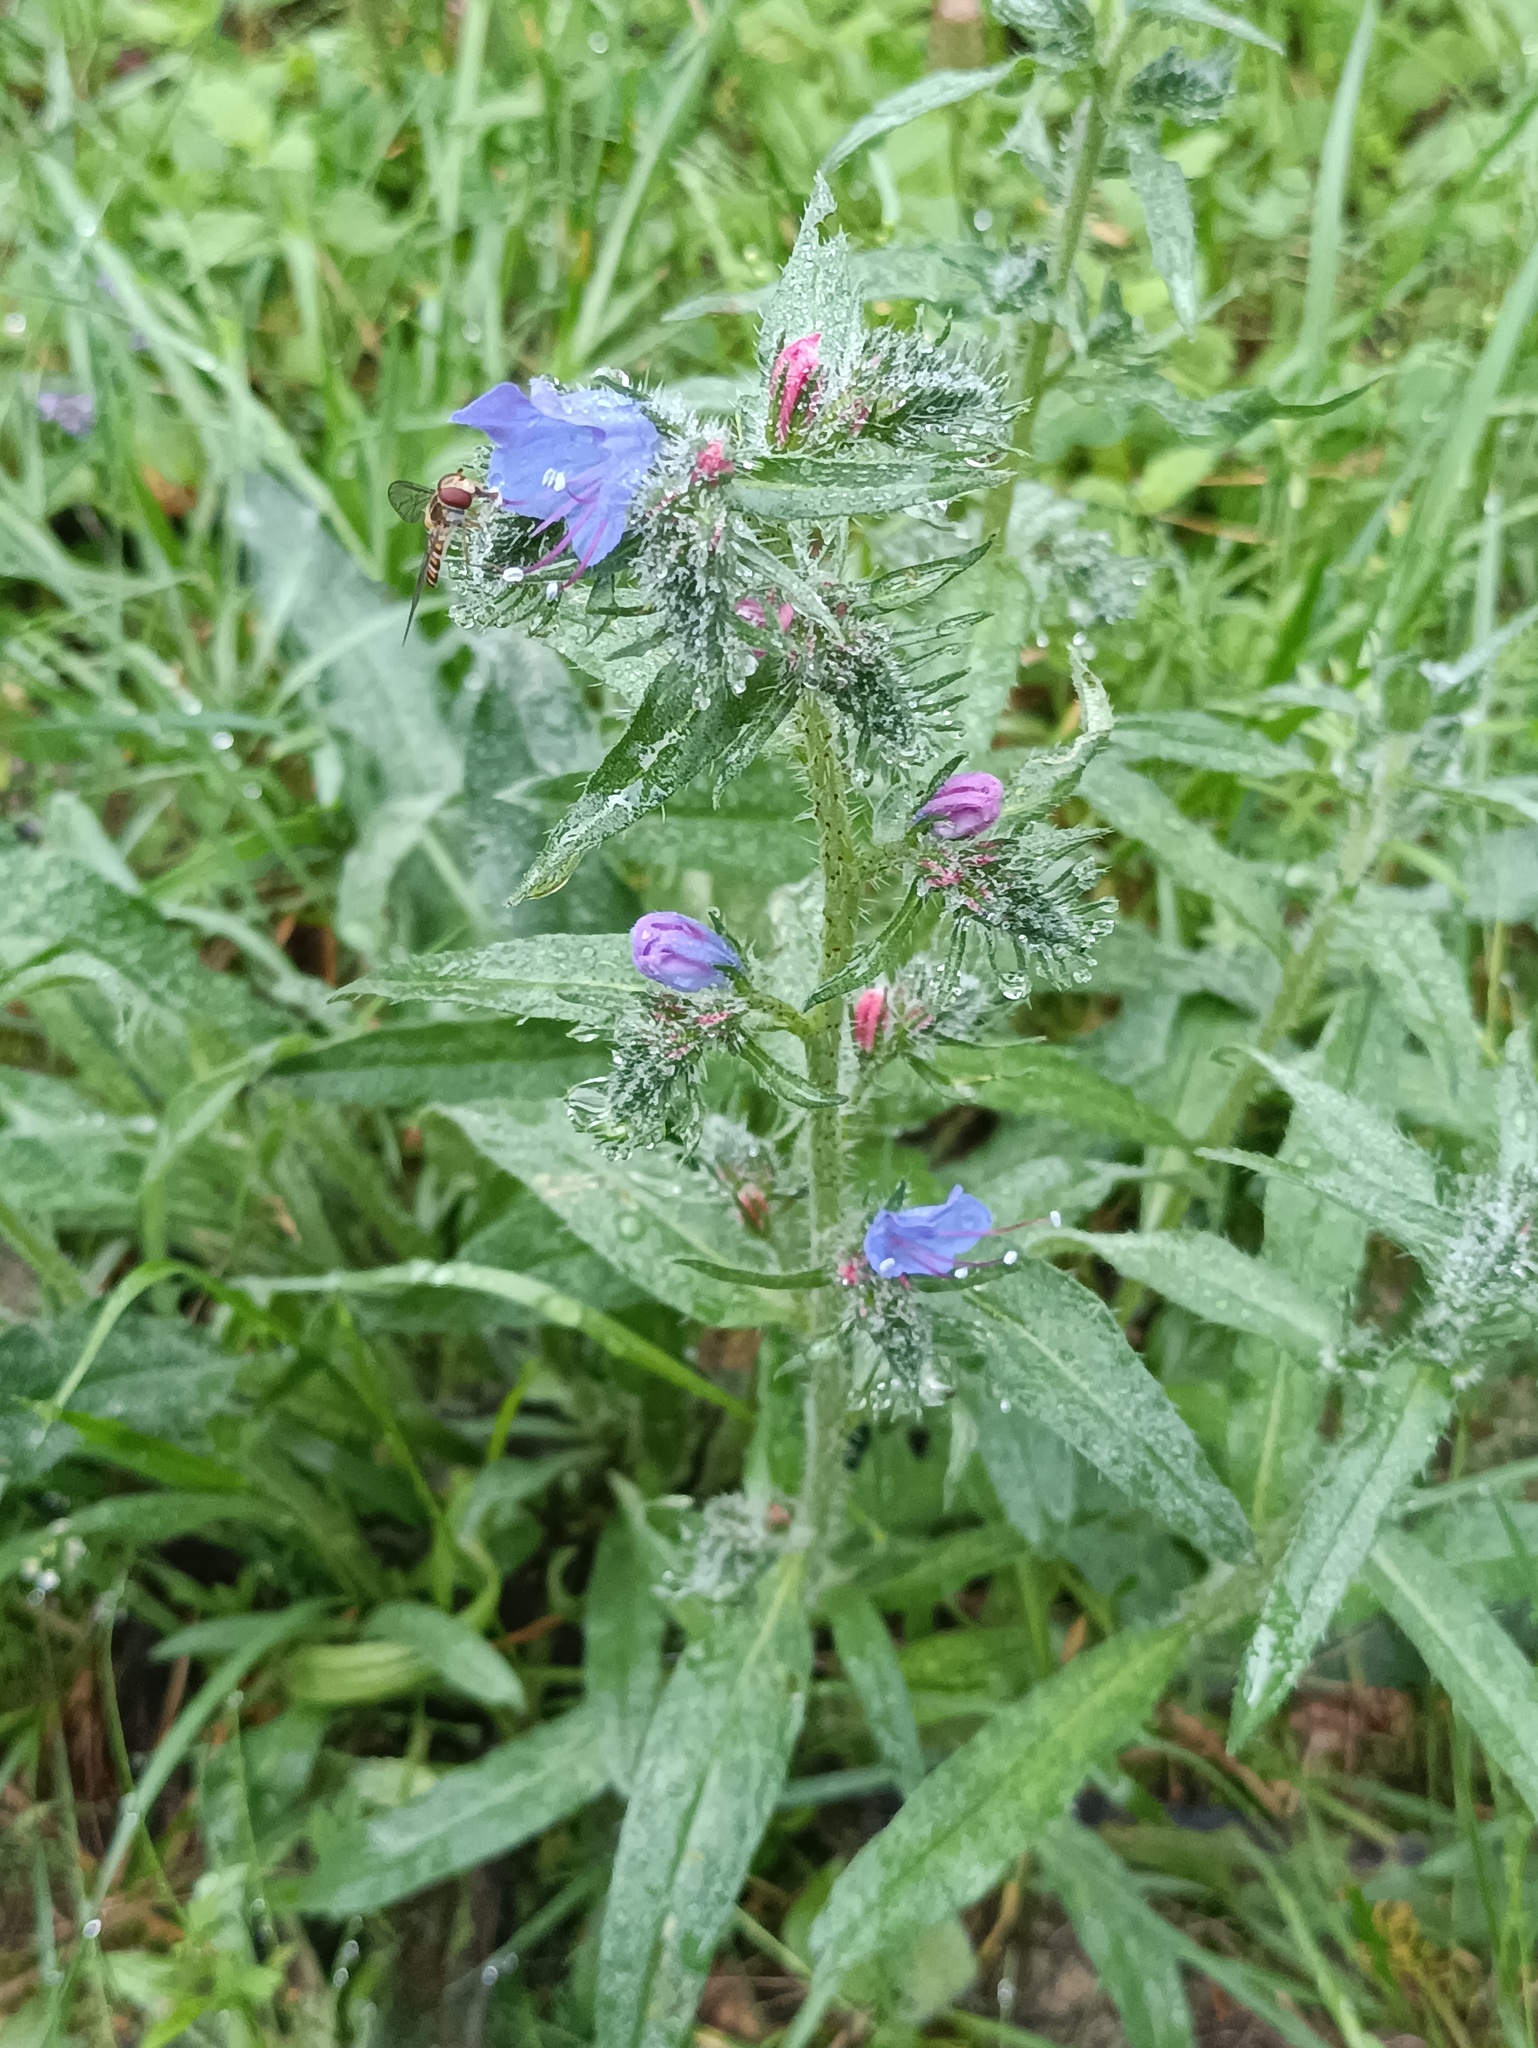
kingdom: Plantae
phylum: Tracheophyta
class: Magnoliopsida
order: Boraginales
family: Boraginaceae
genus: Echium
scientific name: Echium vulgare
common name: Common viper's bugloss
